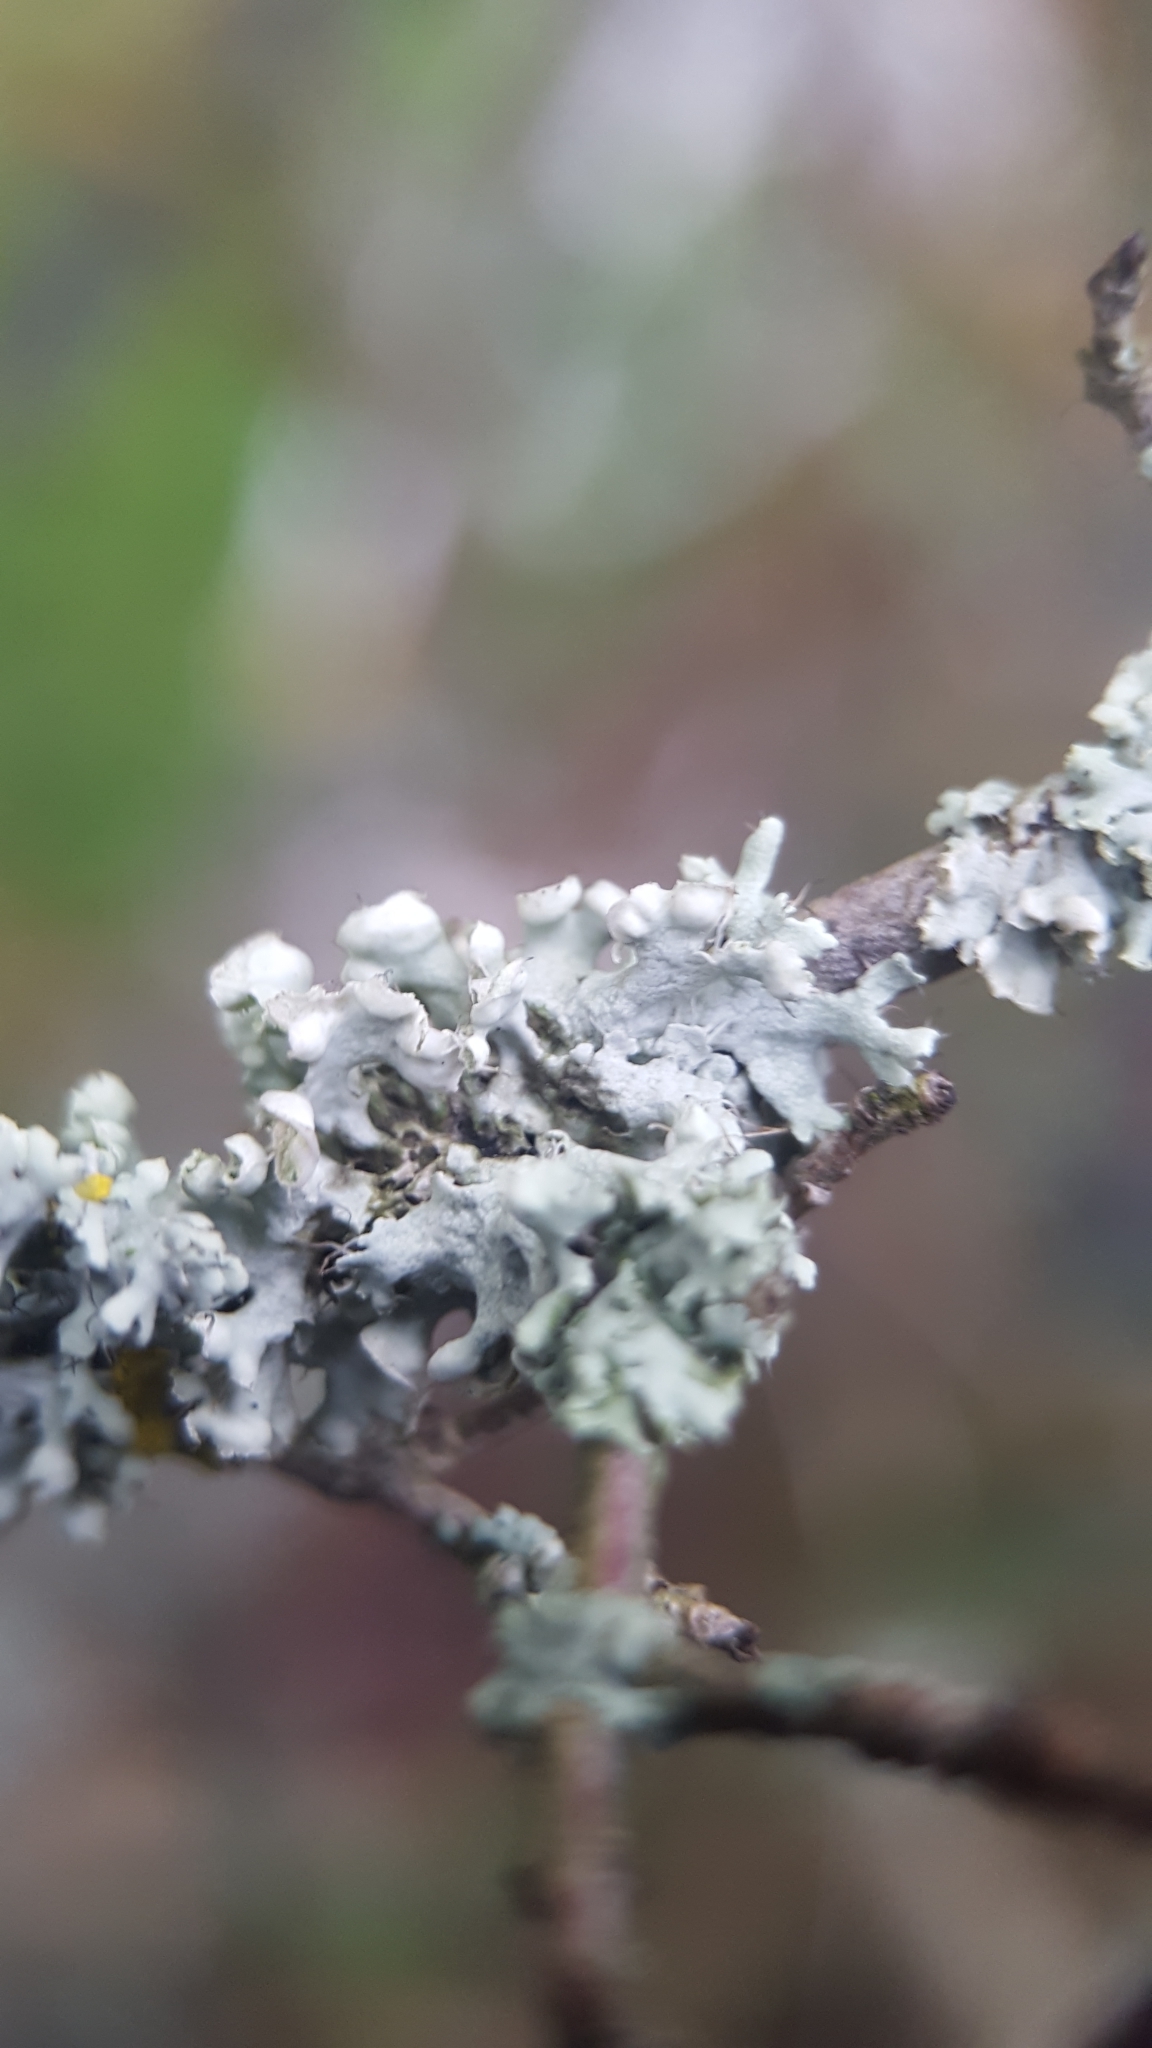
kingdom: Fungi
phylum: Ascomycota
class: Lecanoromycetes
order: Caliciales
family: Physciaceae
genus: Physcia
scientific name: Physcia adscendens
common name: Hooded rosette lichen
